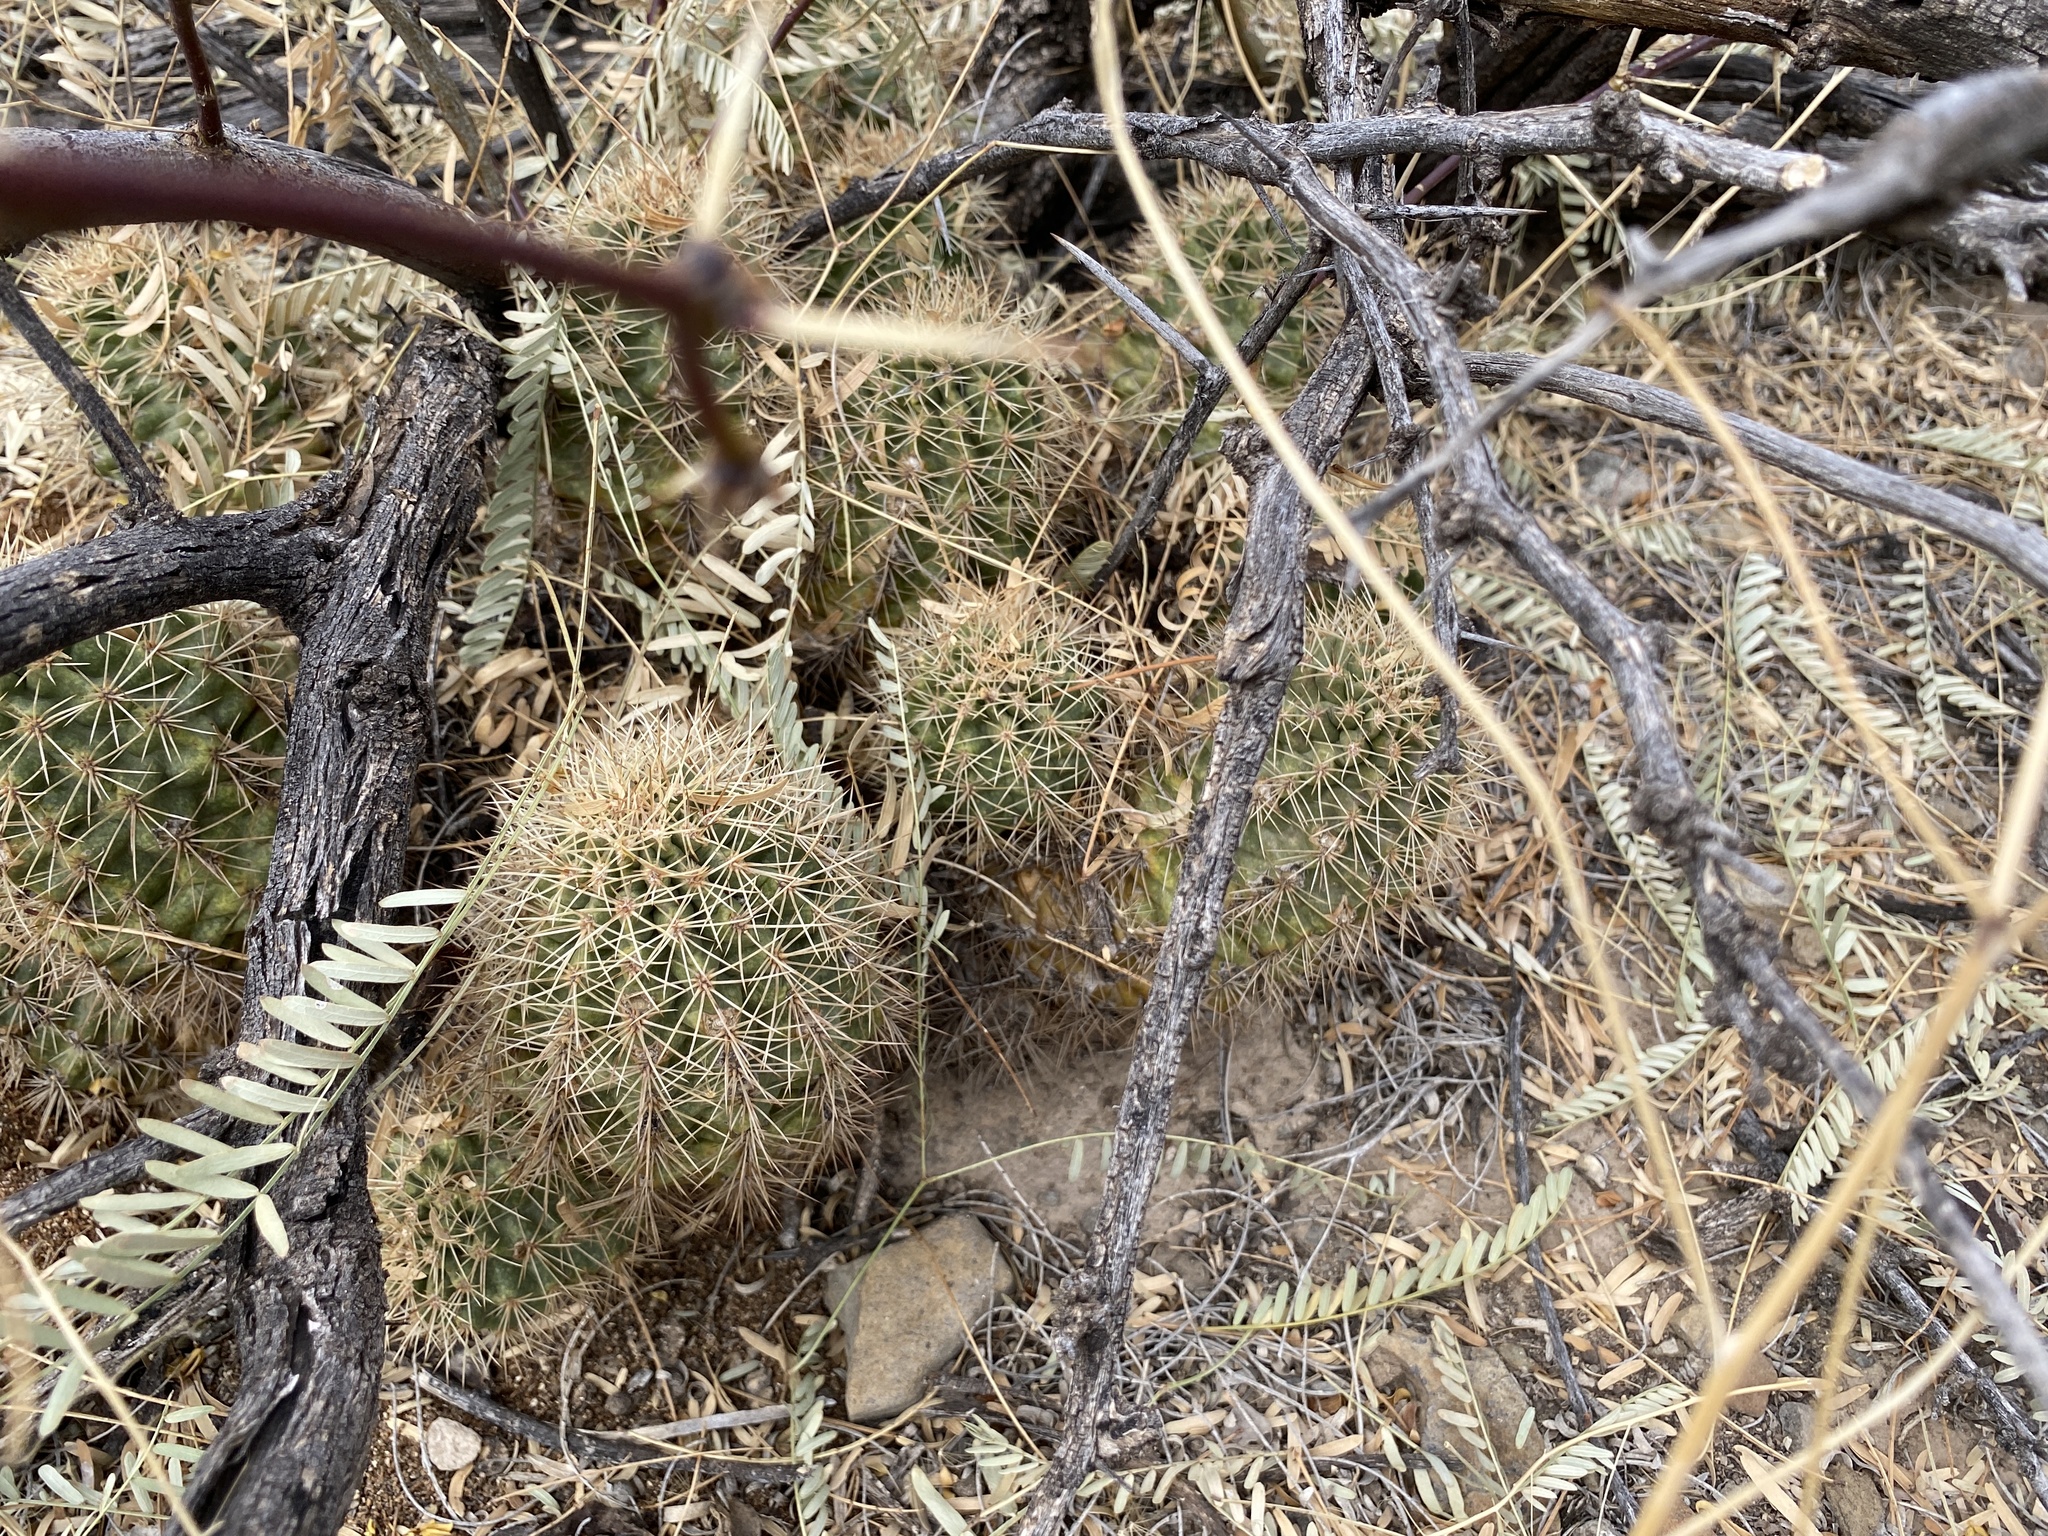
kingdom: Plantae
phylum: Tracheophyta
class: Magnoliopsida
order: Caryophyllales
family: Cactaceae
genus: Echinocereus
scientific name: Echinocereus coccineus
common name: Scarlet hedgehog cactus
